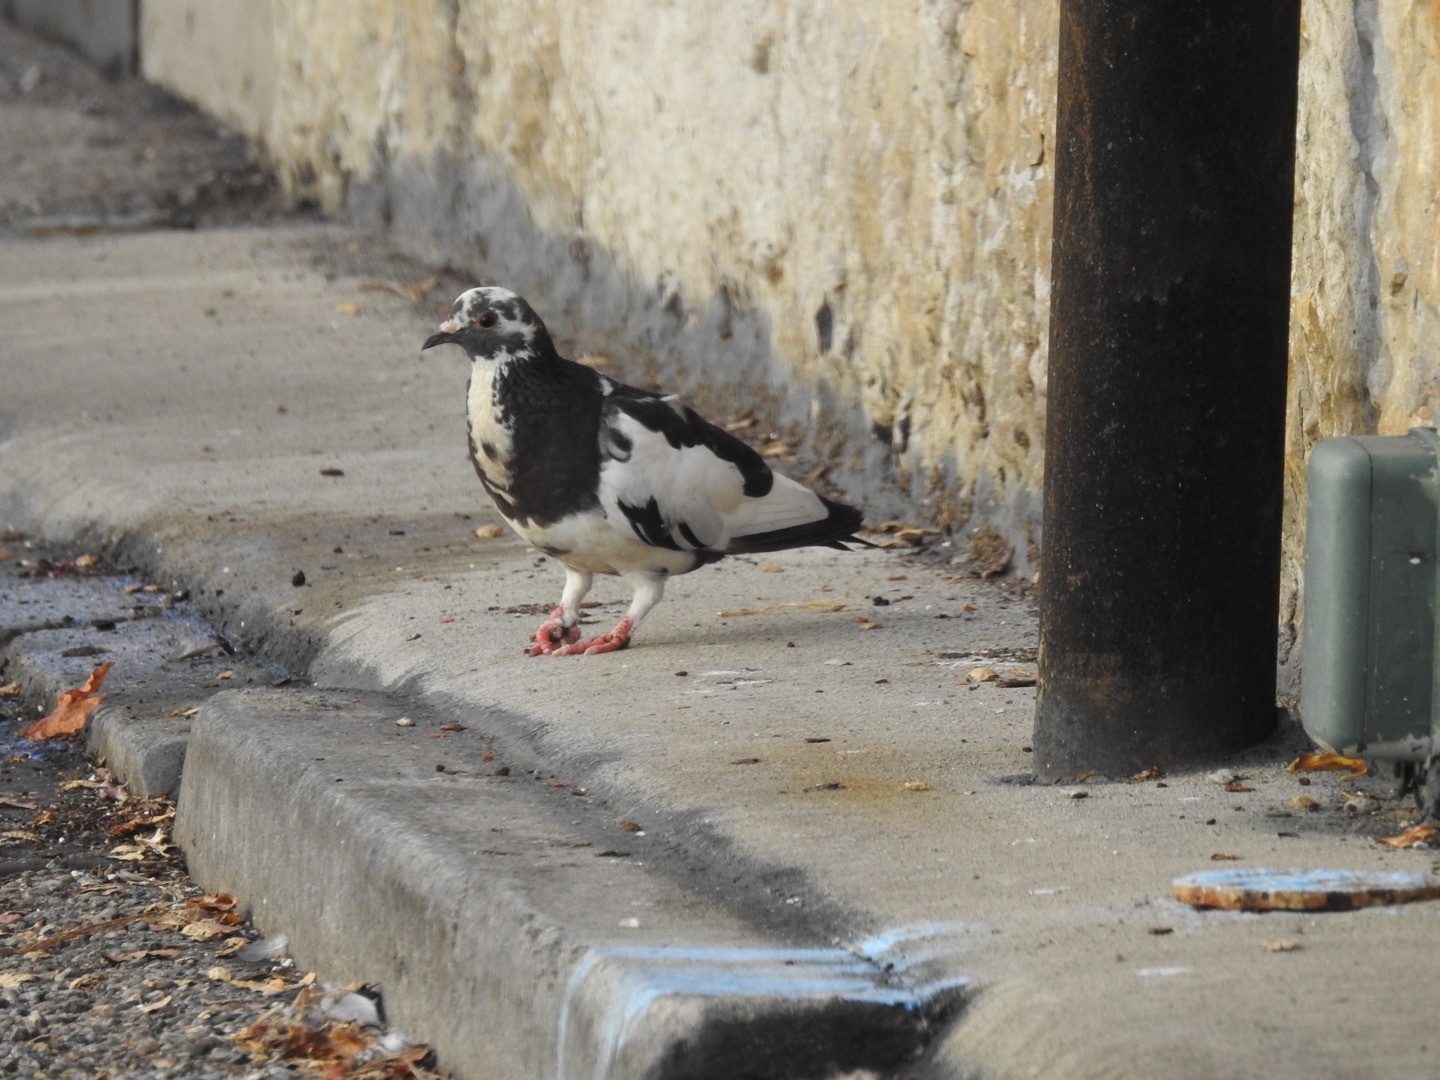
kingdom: Animalia
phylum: Chordata
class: Aves
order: Columbiformes
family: Columbidae
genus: Columba
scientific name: Columba livia
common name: Rock pigeon
